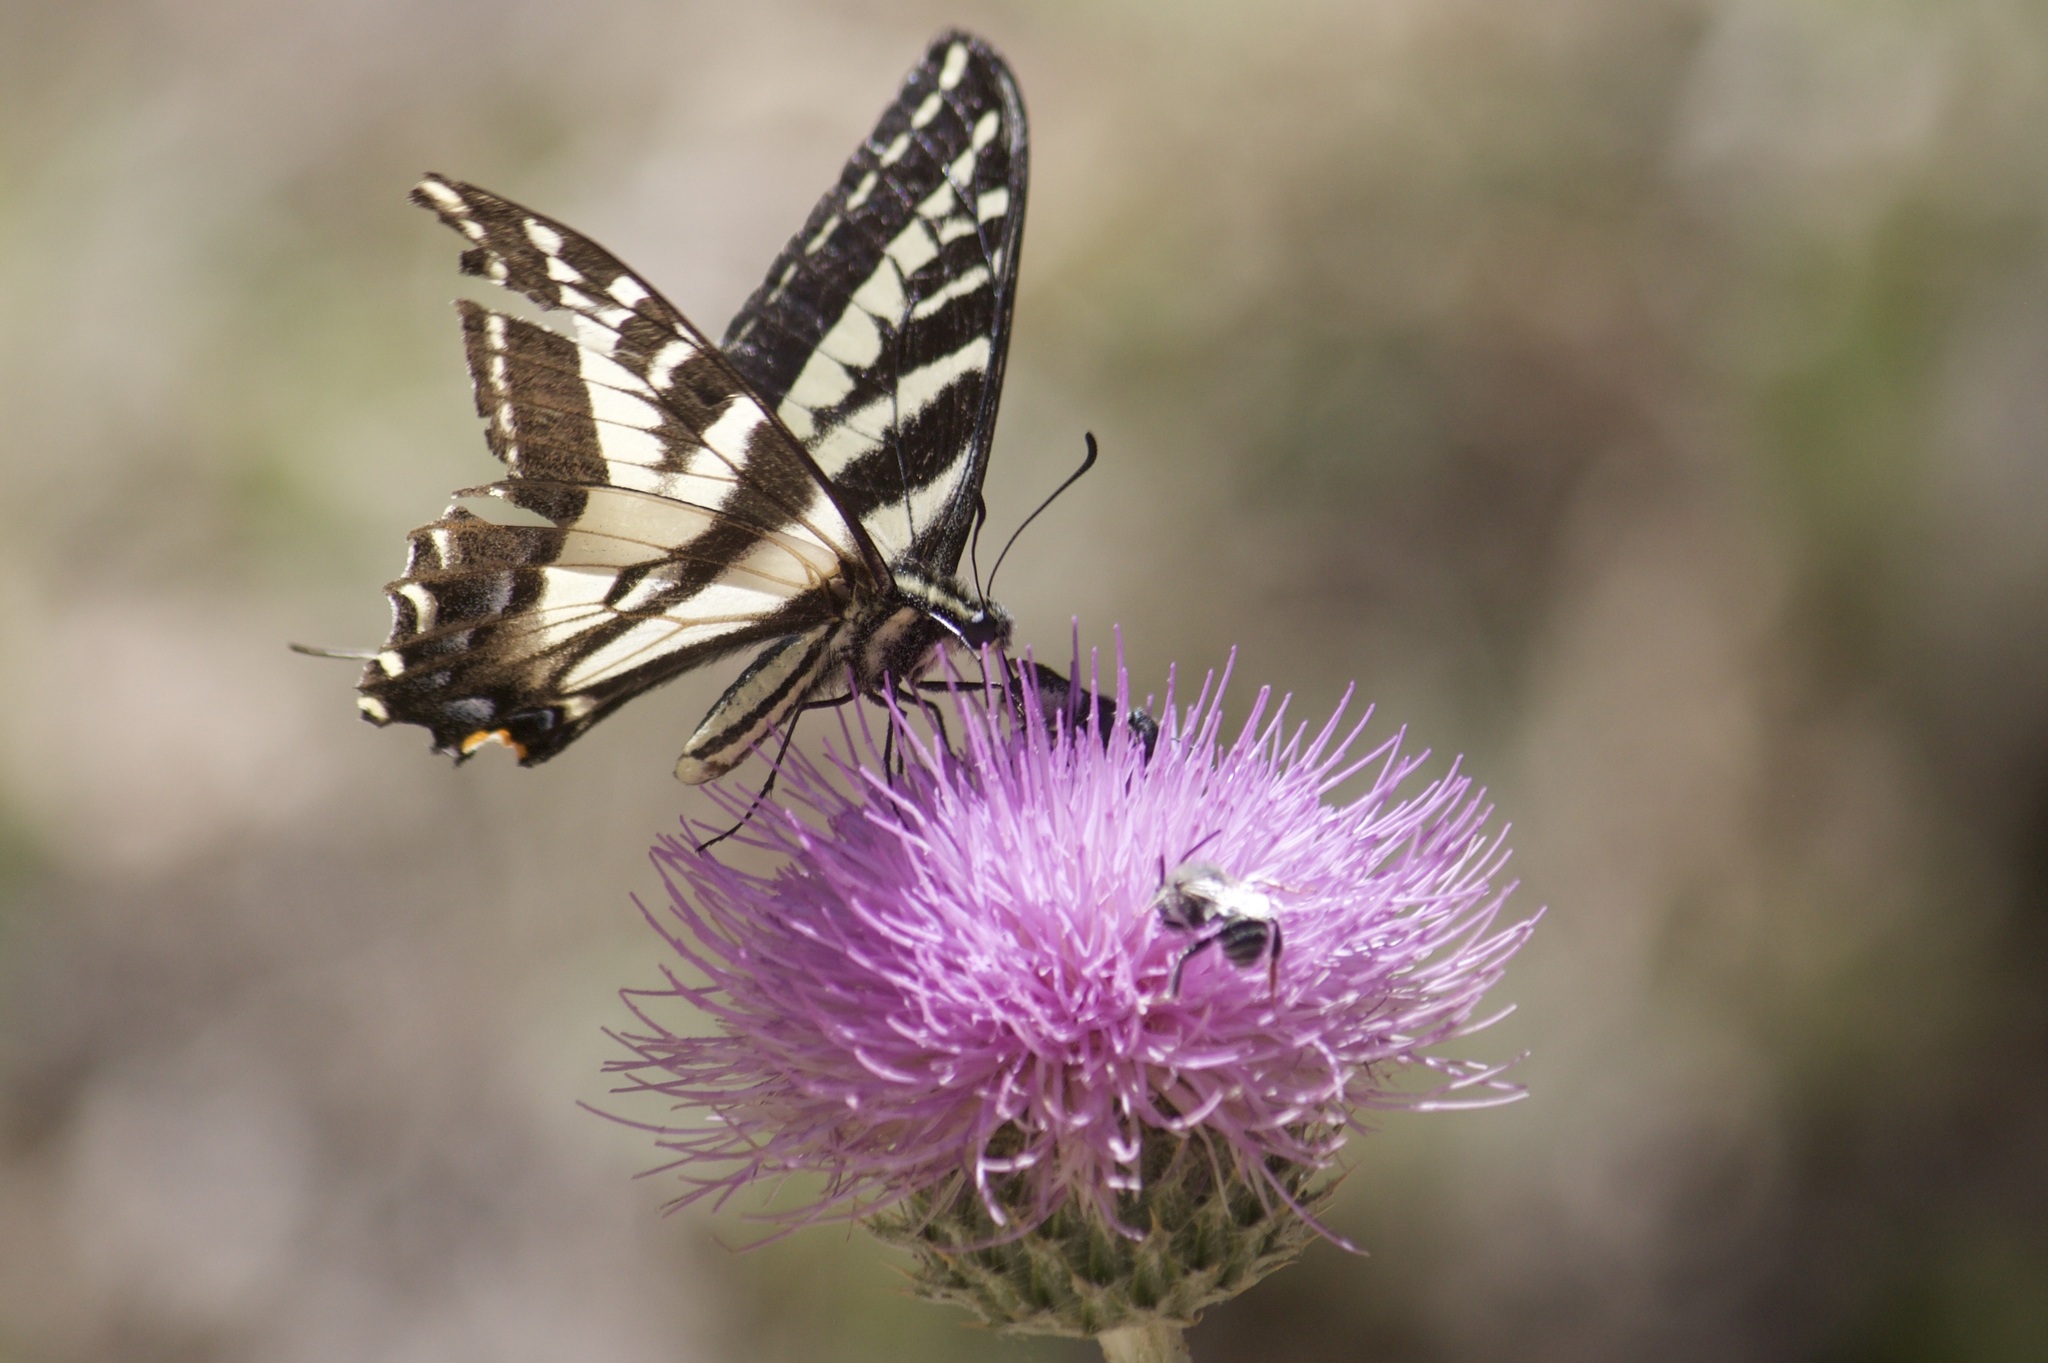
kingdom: Animalia
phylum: Arthropoda
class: Insecta
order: Lepidoptera
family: Papilionidae
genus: Papilio
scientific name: Papilio eurymedon
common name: Pale tiger swallowtail
